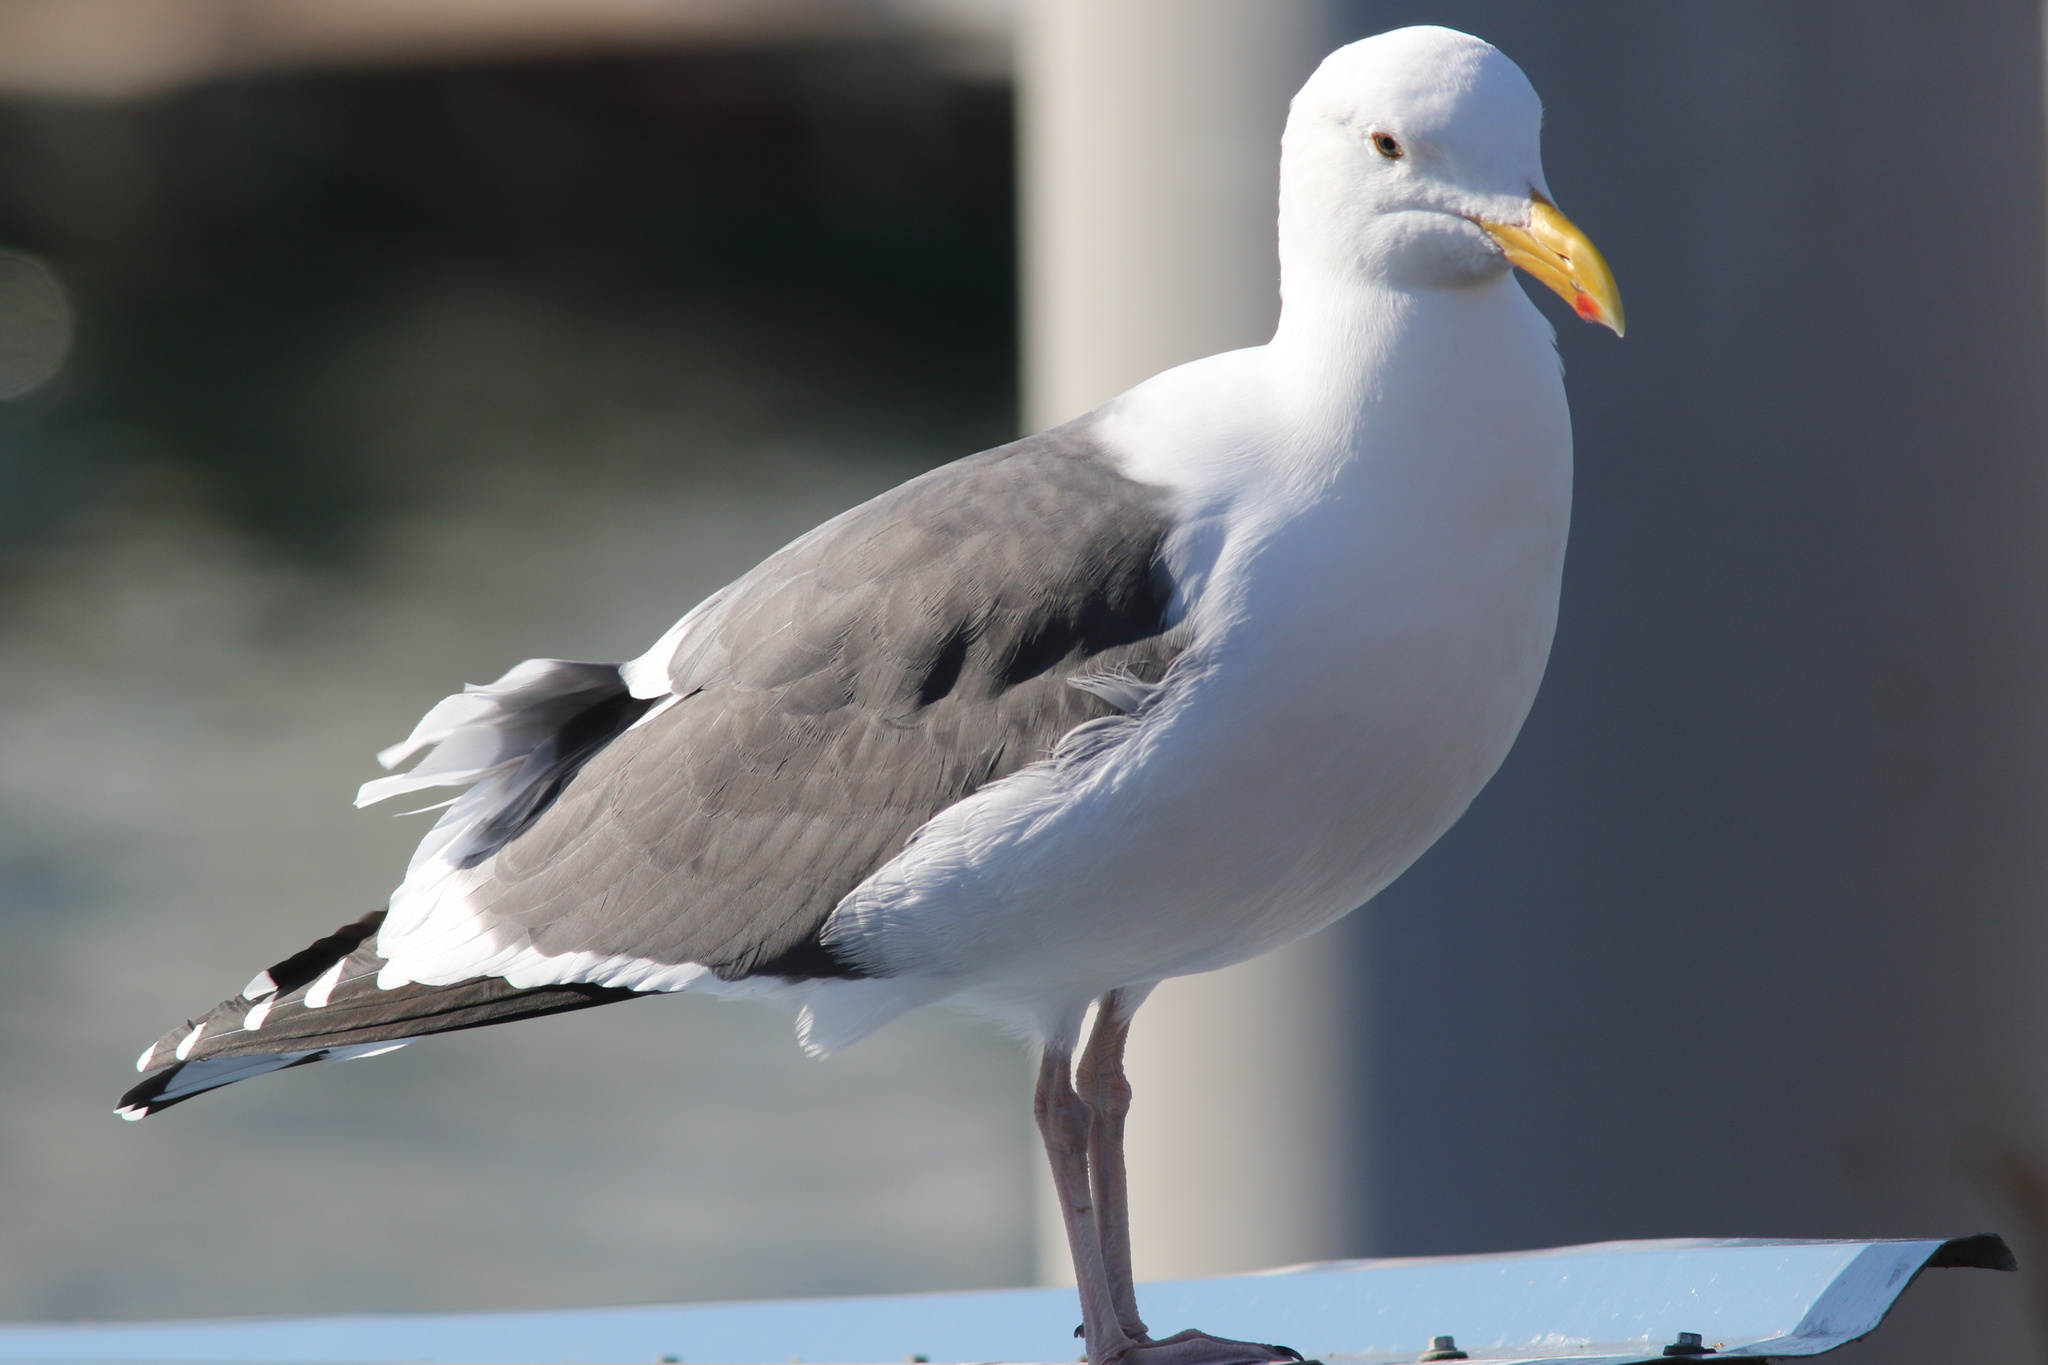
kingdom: Animalia
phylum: Chordata
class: Aves
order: Charadriiformes
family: Laridae
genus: Larus
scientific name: Larus occidentalis
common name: Western gull
